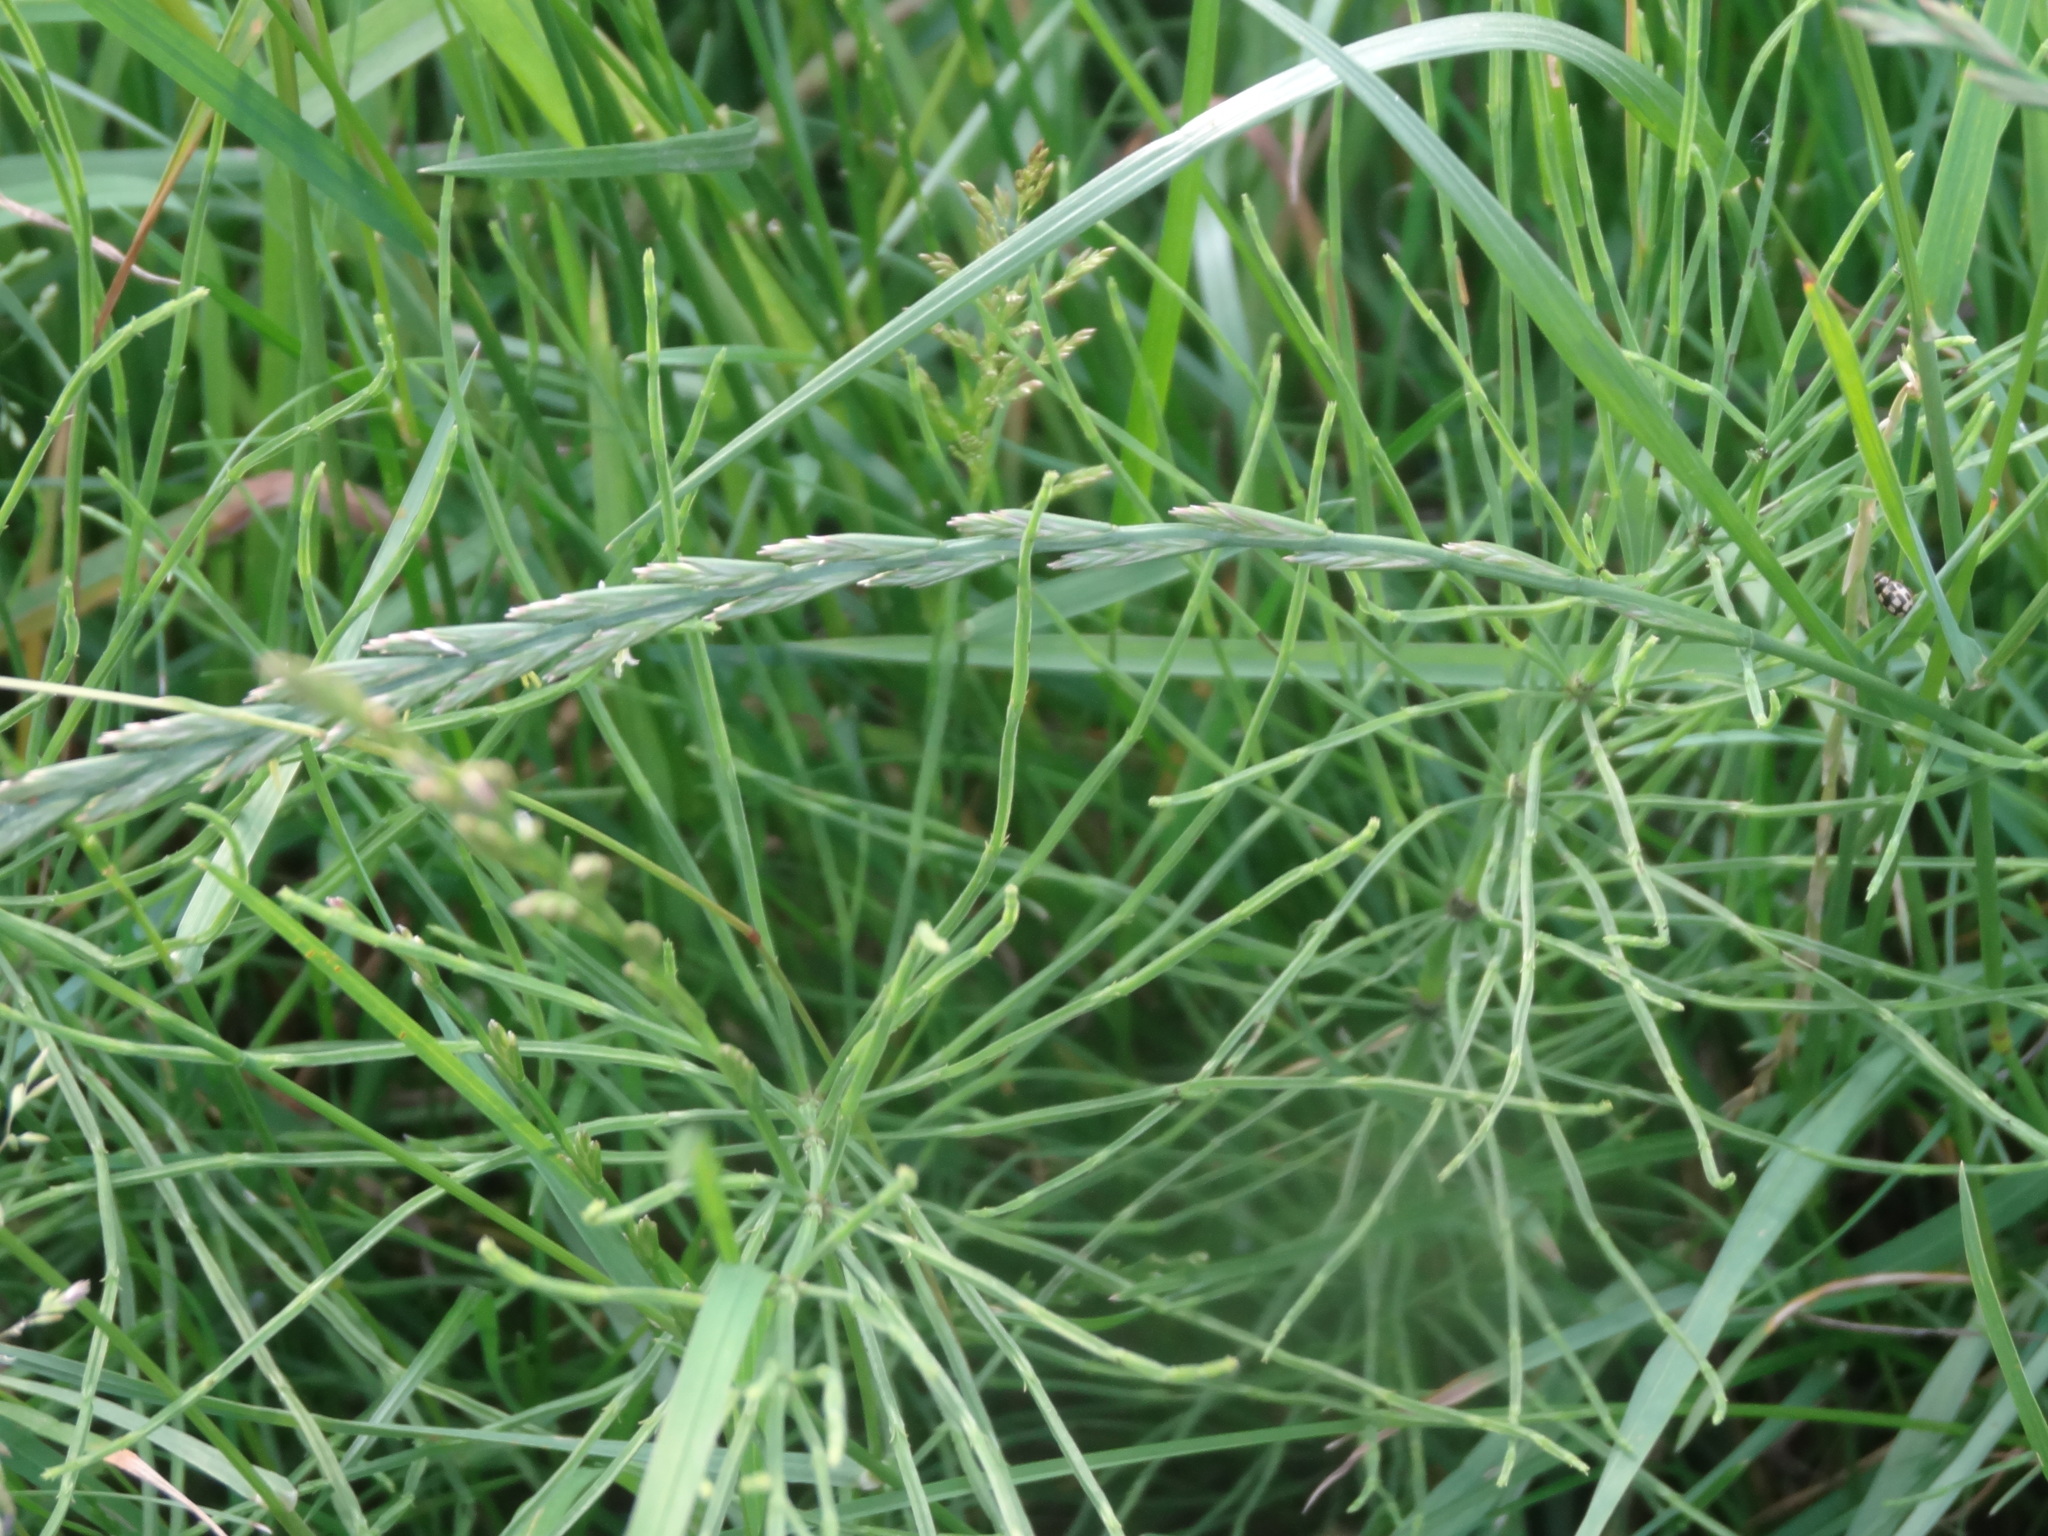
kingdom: Plantae
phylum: Tracheophyta
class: Polypodiopsida
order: Equisetales
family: Equisetaceae
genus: Equisetum
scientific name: Equisetum arvense
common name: Field horsetail
